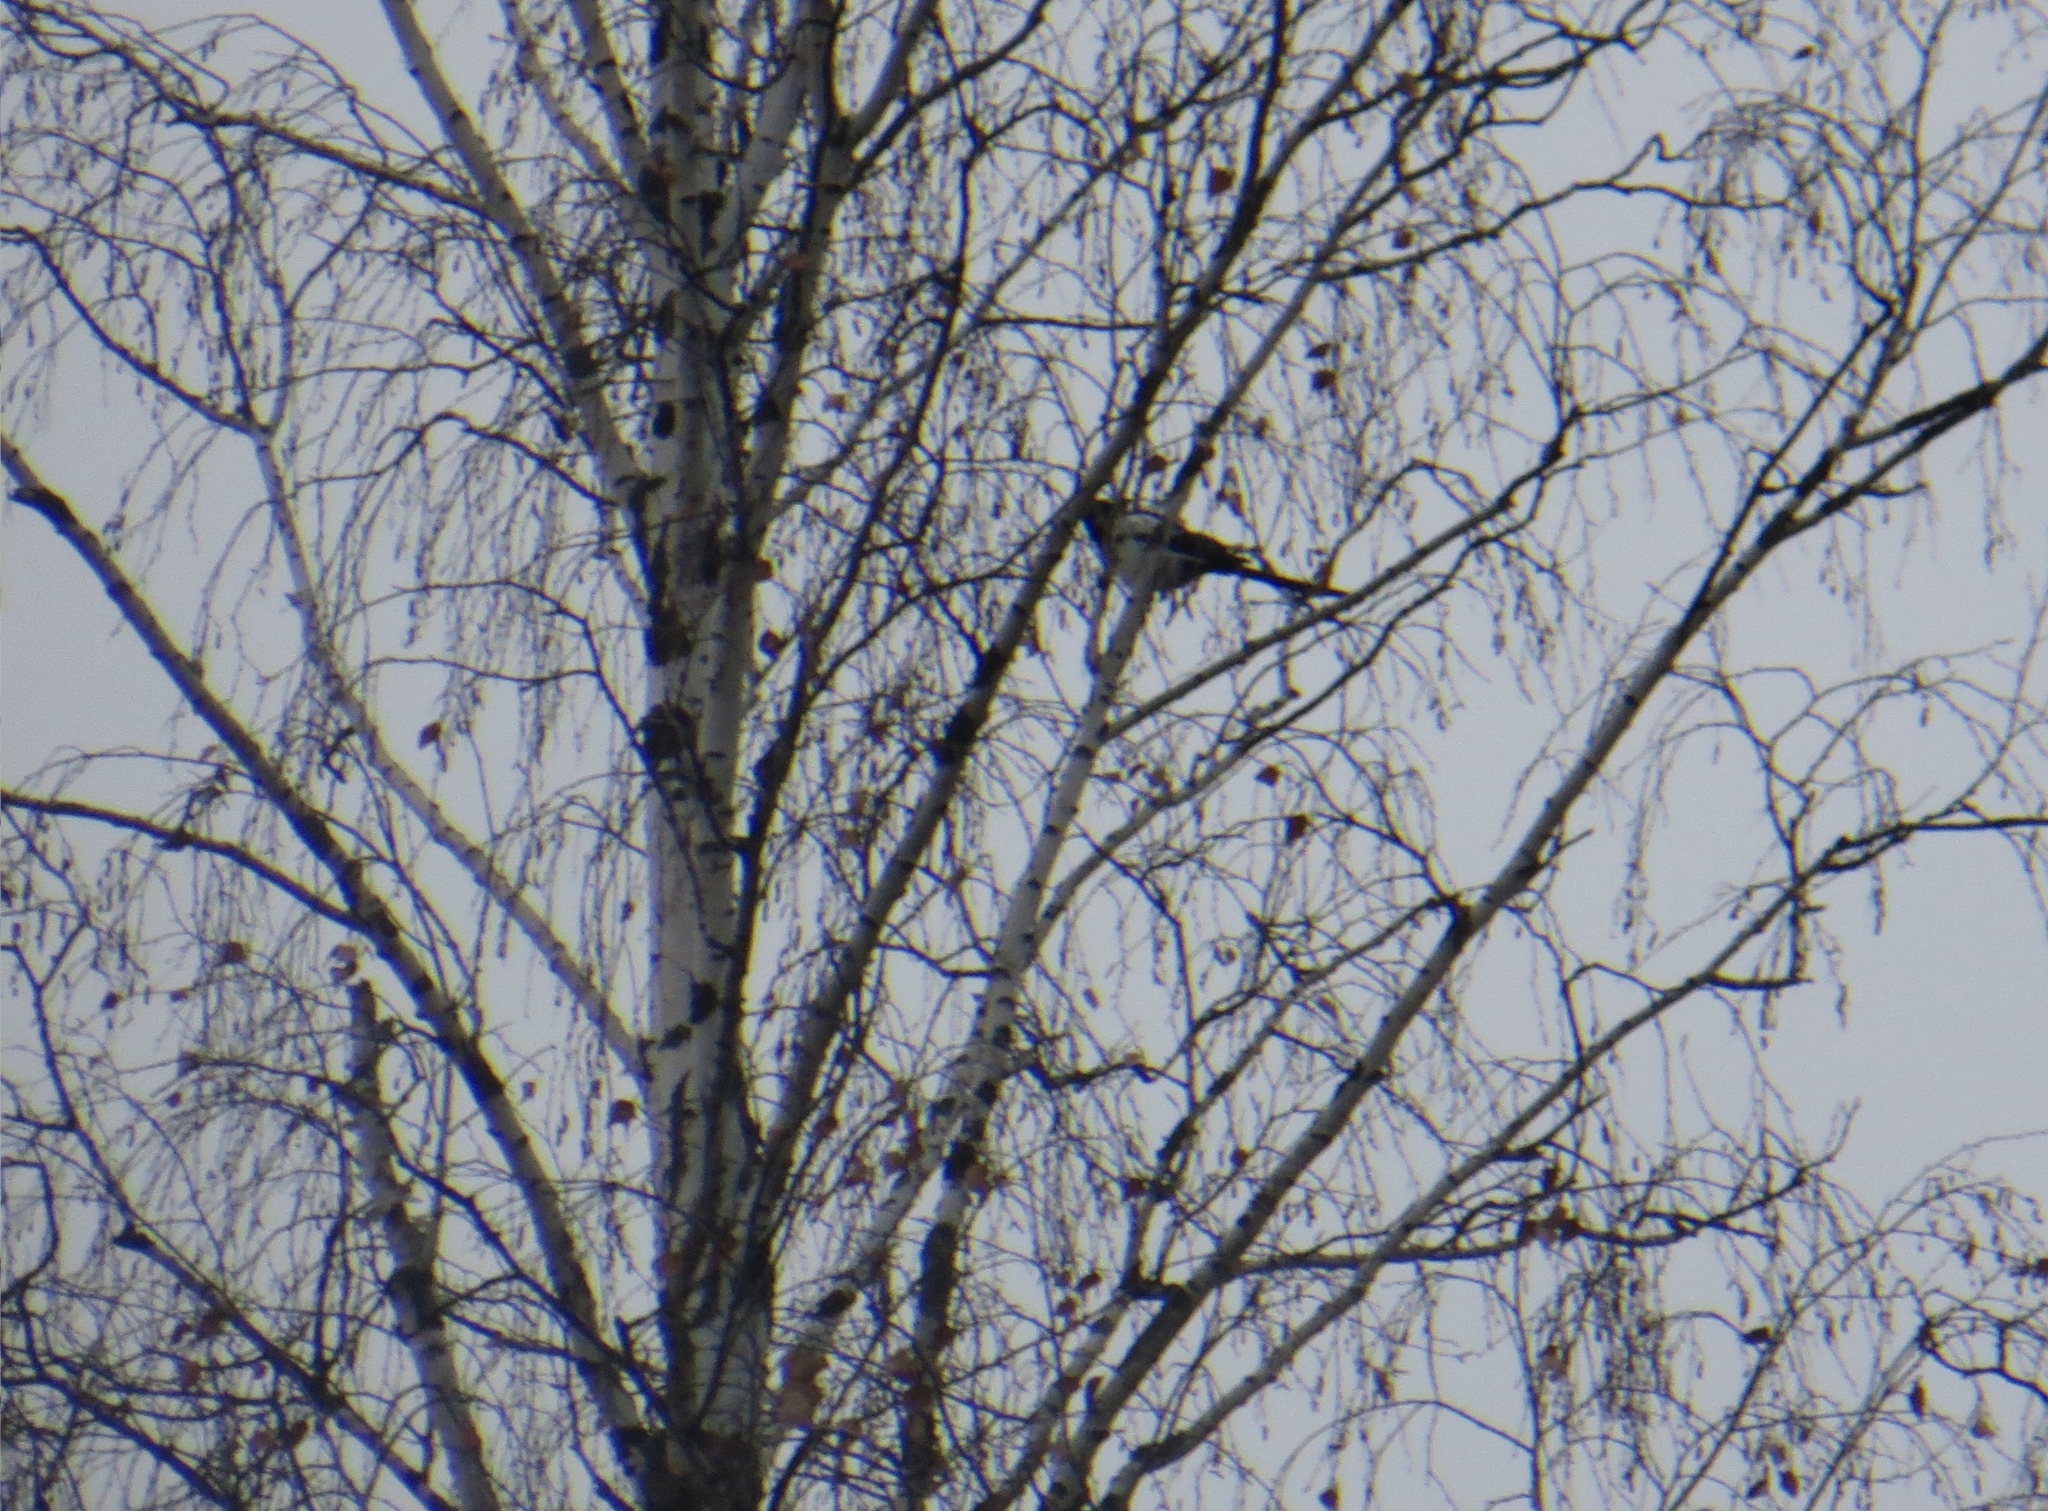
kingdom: Animalia
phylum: Chordata
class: Aves
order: Passeriformes
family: Corvidae
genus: Pica
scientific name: Pica pica
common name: Eurasian magpie
